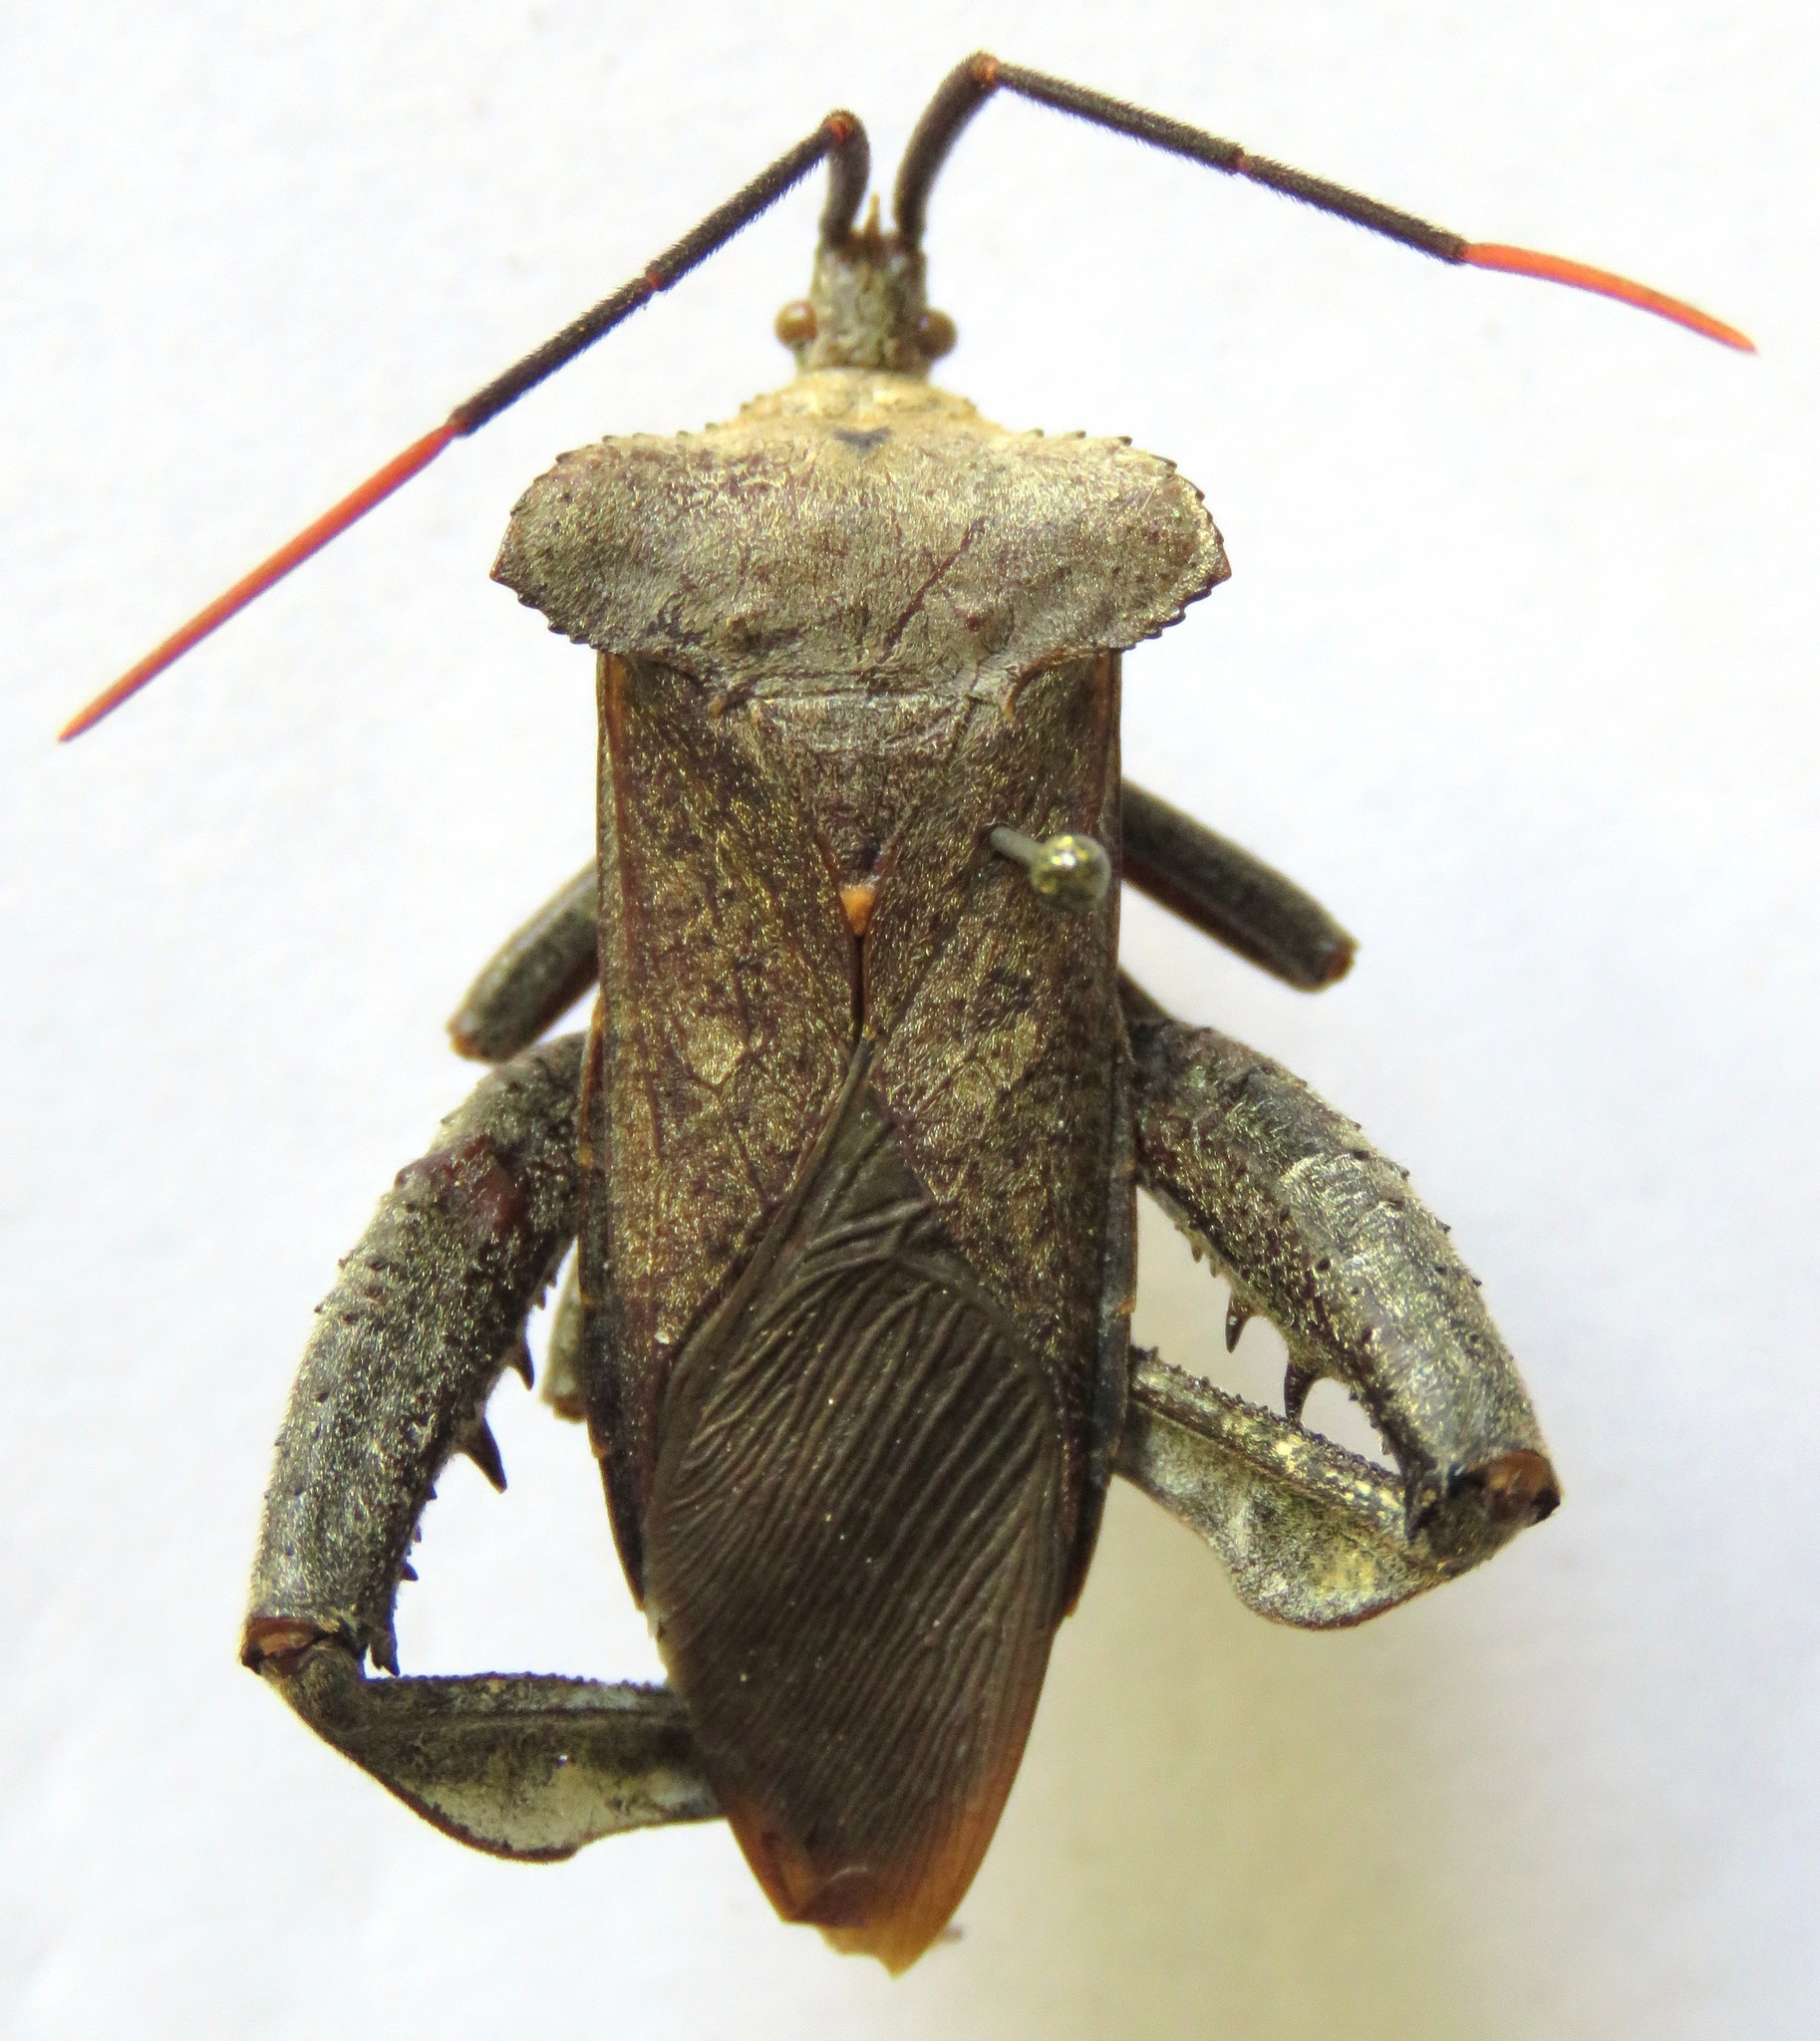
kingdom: Animalia
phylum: Arthropoda
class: Insecta
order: Hemiptera
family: Coreidae
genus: Acanthocephala
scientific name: Acanthocephala alata
